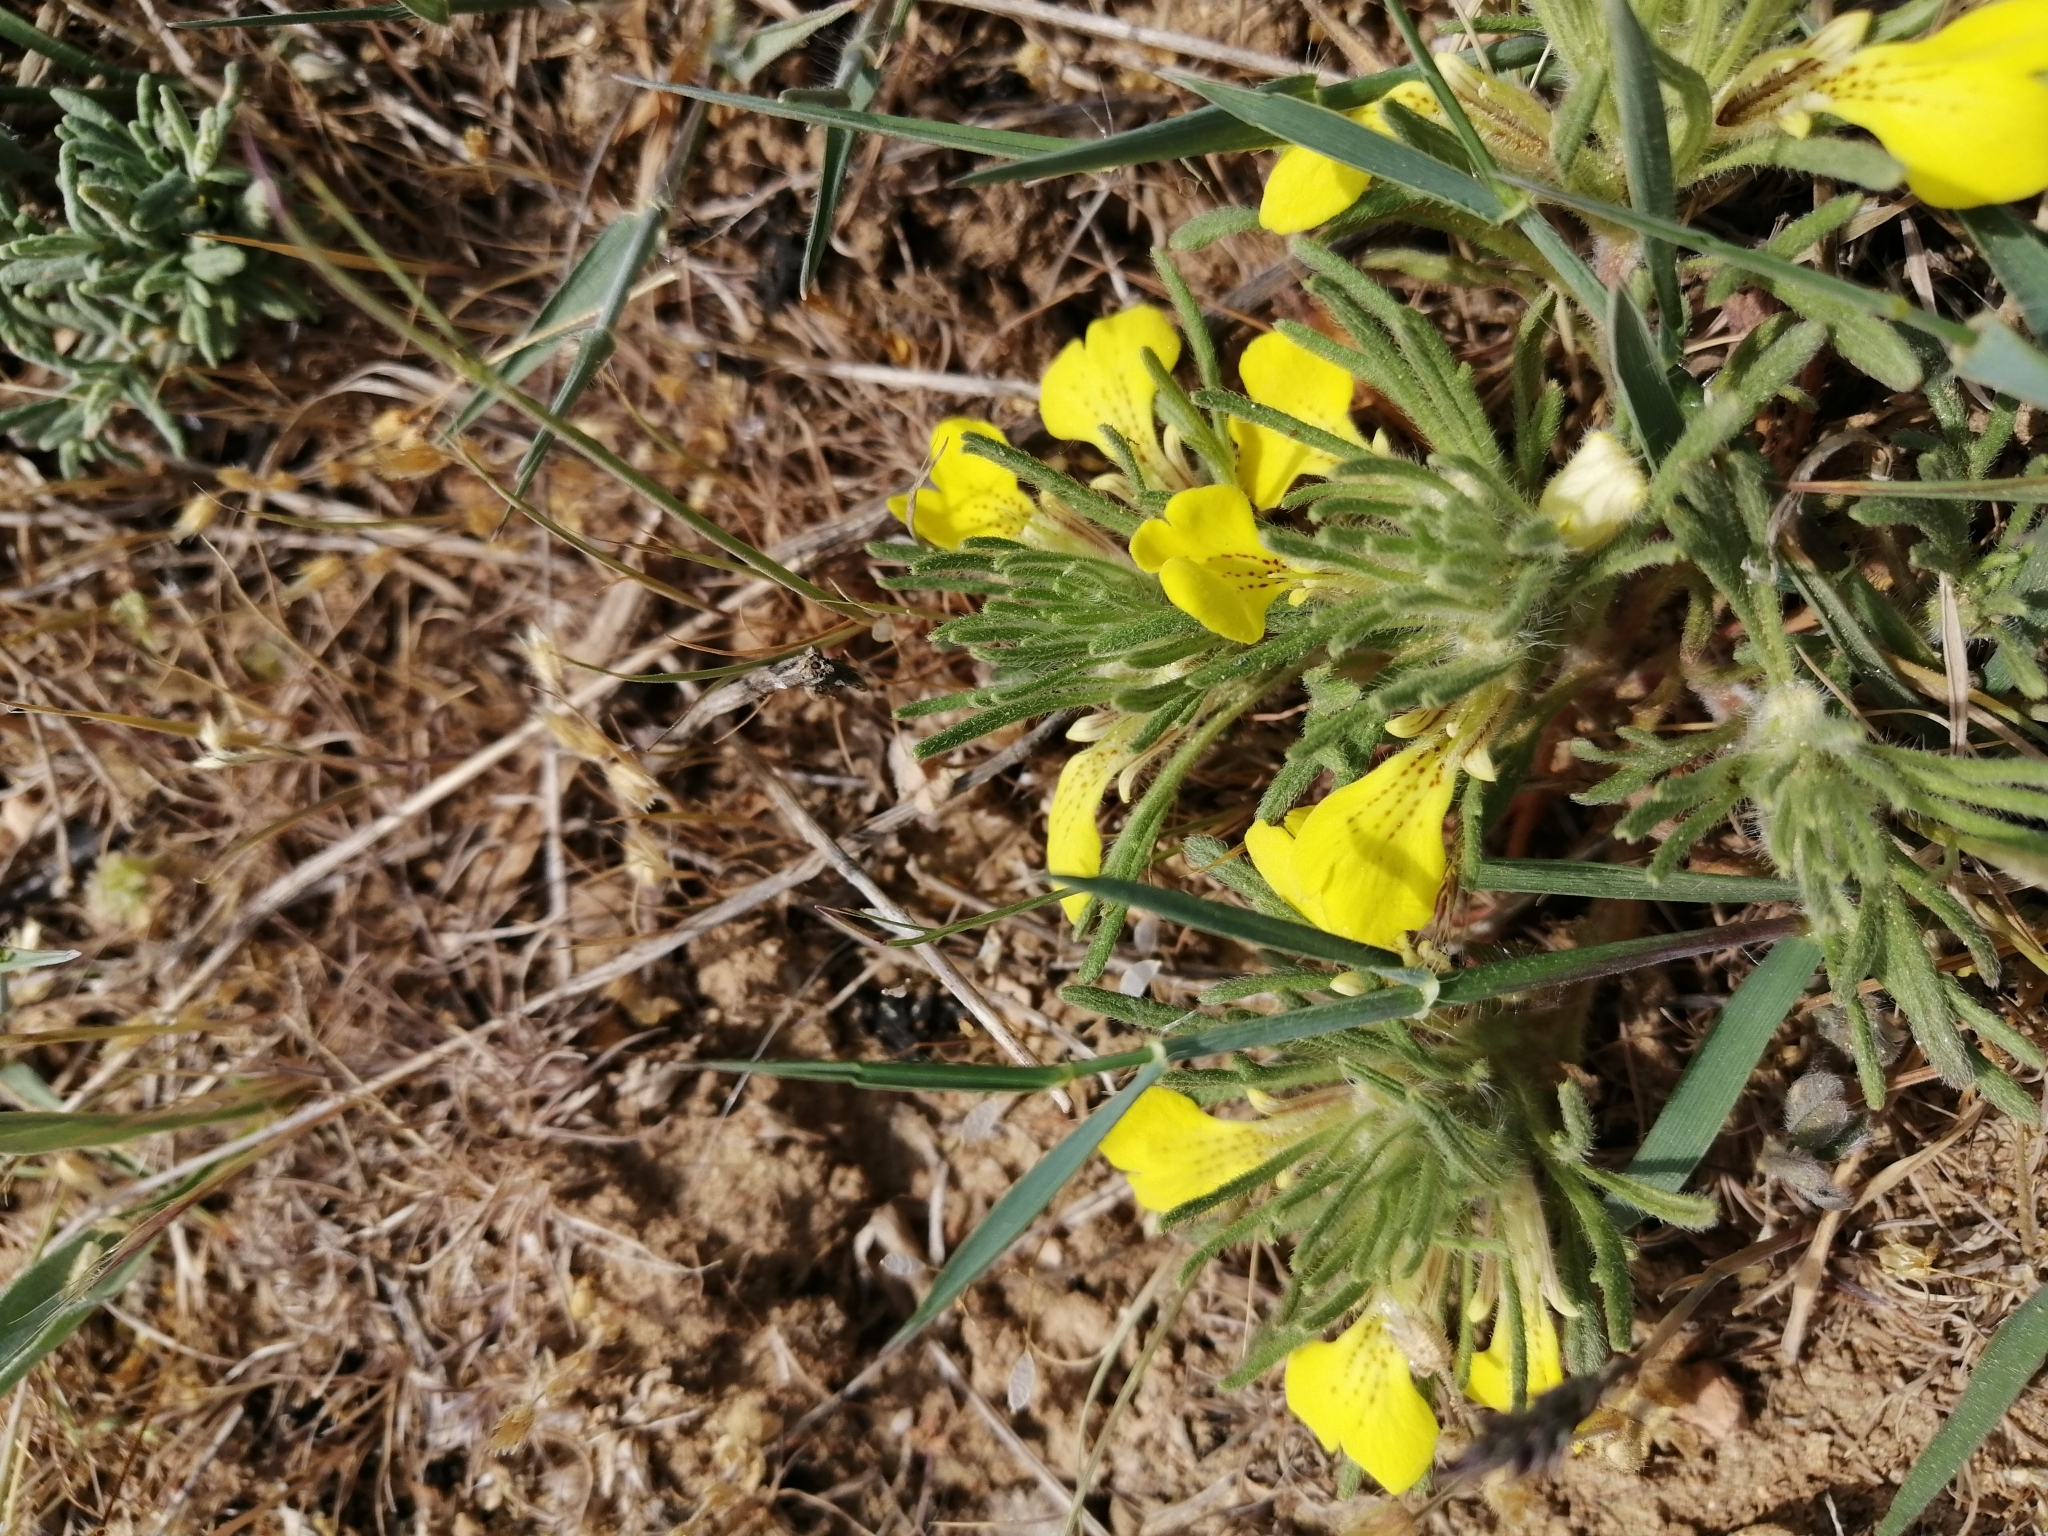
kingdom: Plantae
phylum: Tracheophyta
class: Magnoliopsida
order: Lamiales
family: Lamiaceae
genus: Ajuga
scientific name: Ajuga chamaepitys
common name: Ground-pine
